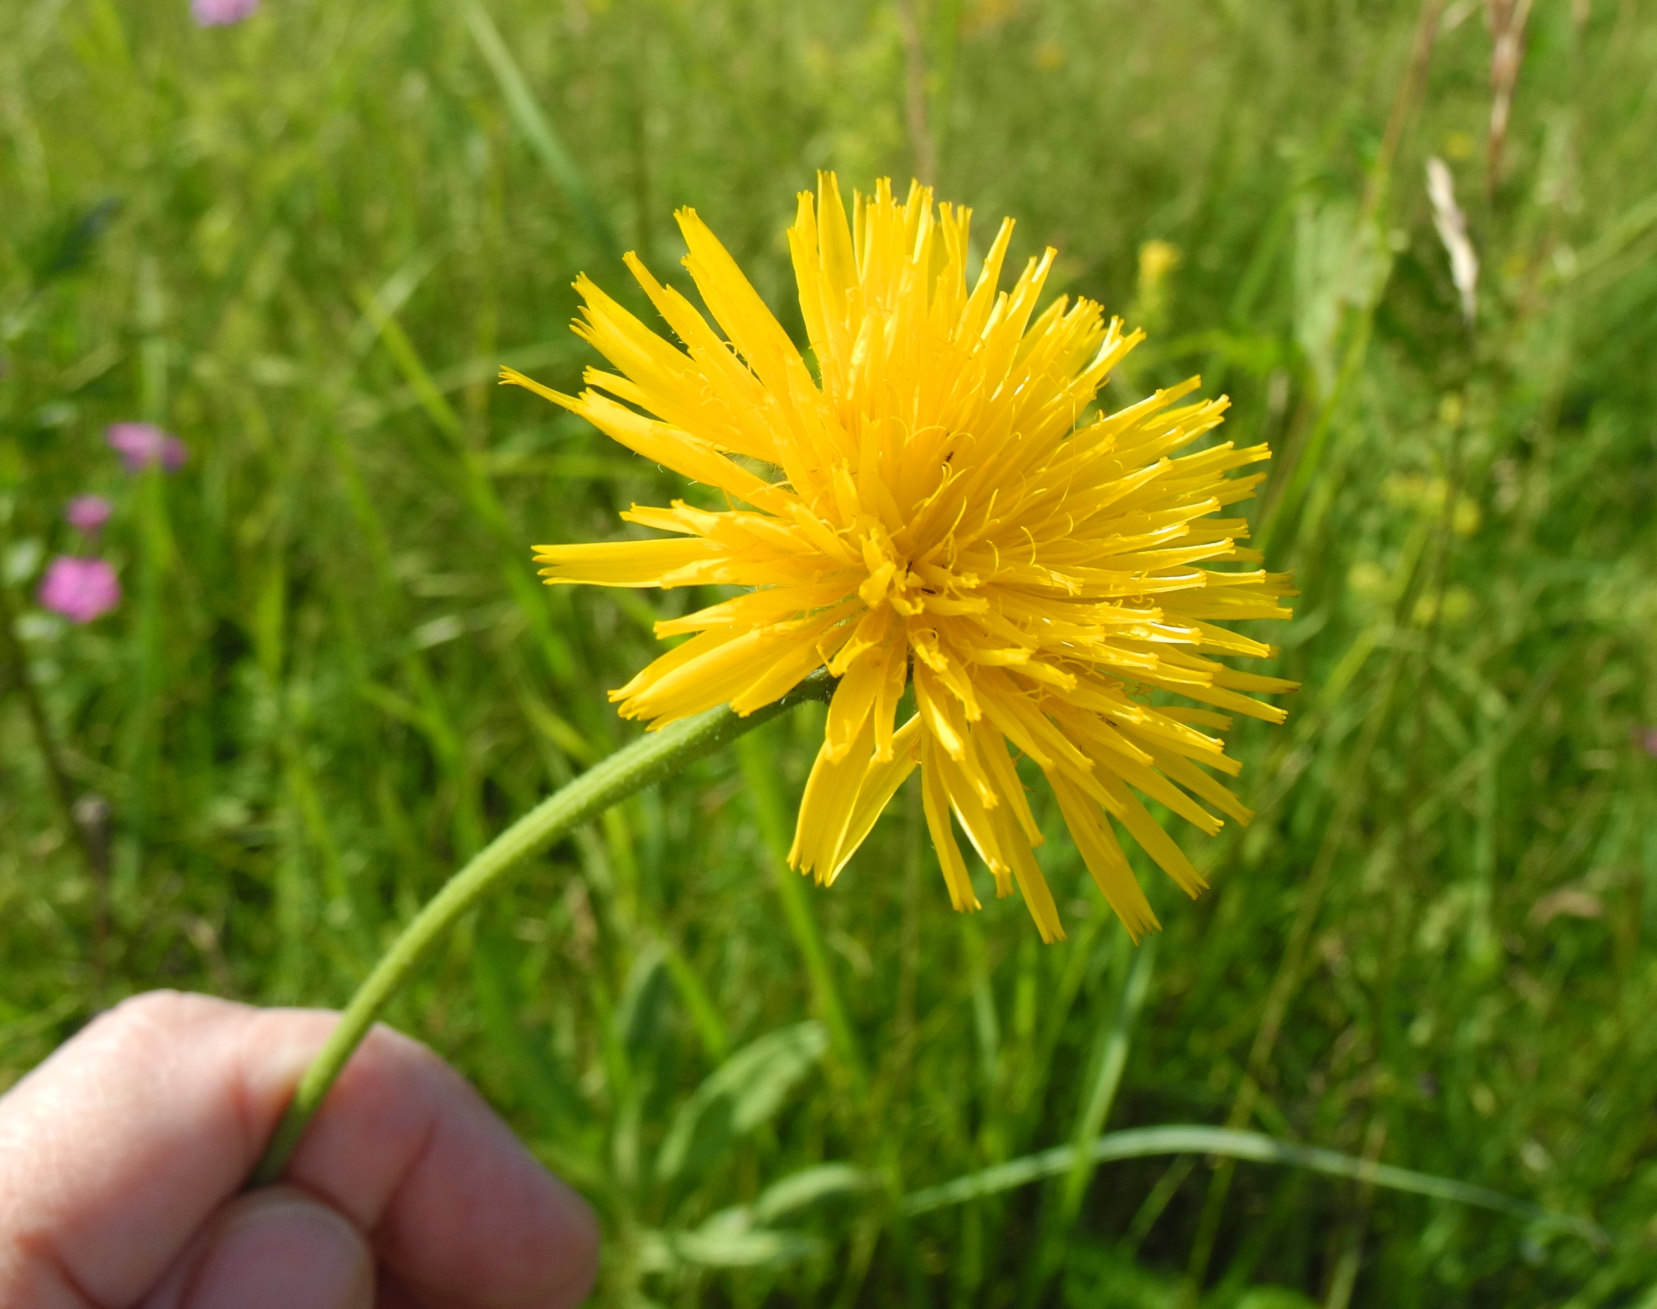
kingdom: Plantae
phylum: Tracheophyta
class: Magnoliopsida
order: Asterales
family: Asteraceae
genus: Leontodon
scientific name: Leontodon hispidus
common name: Rough hawkbit
